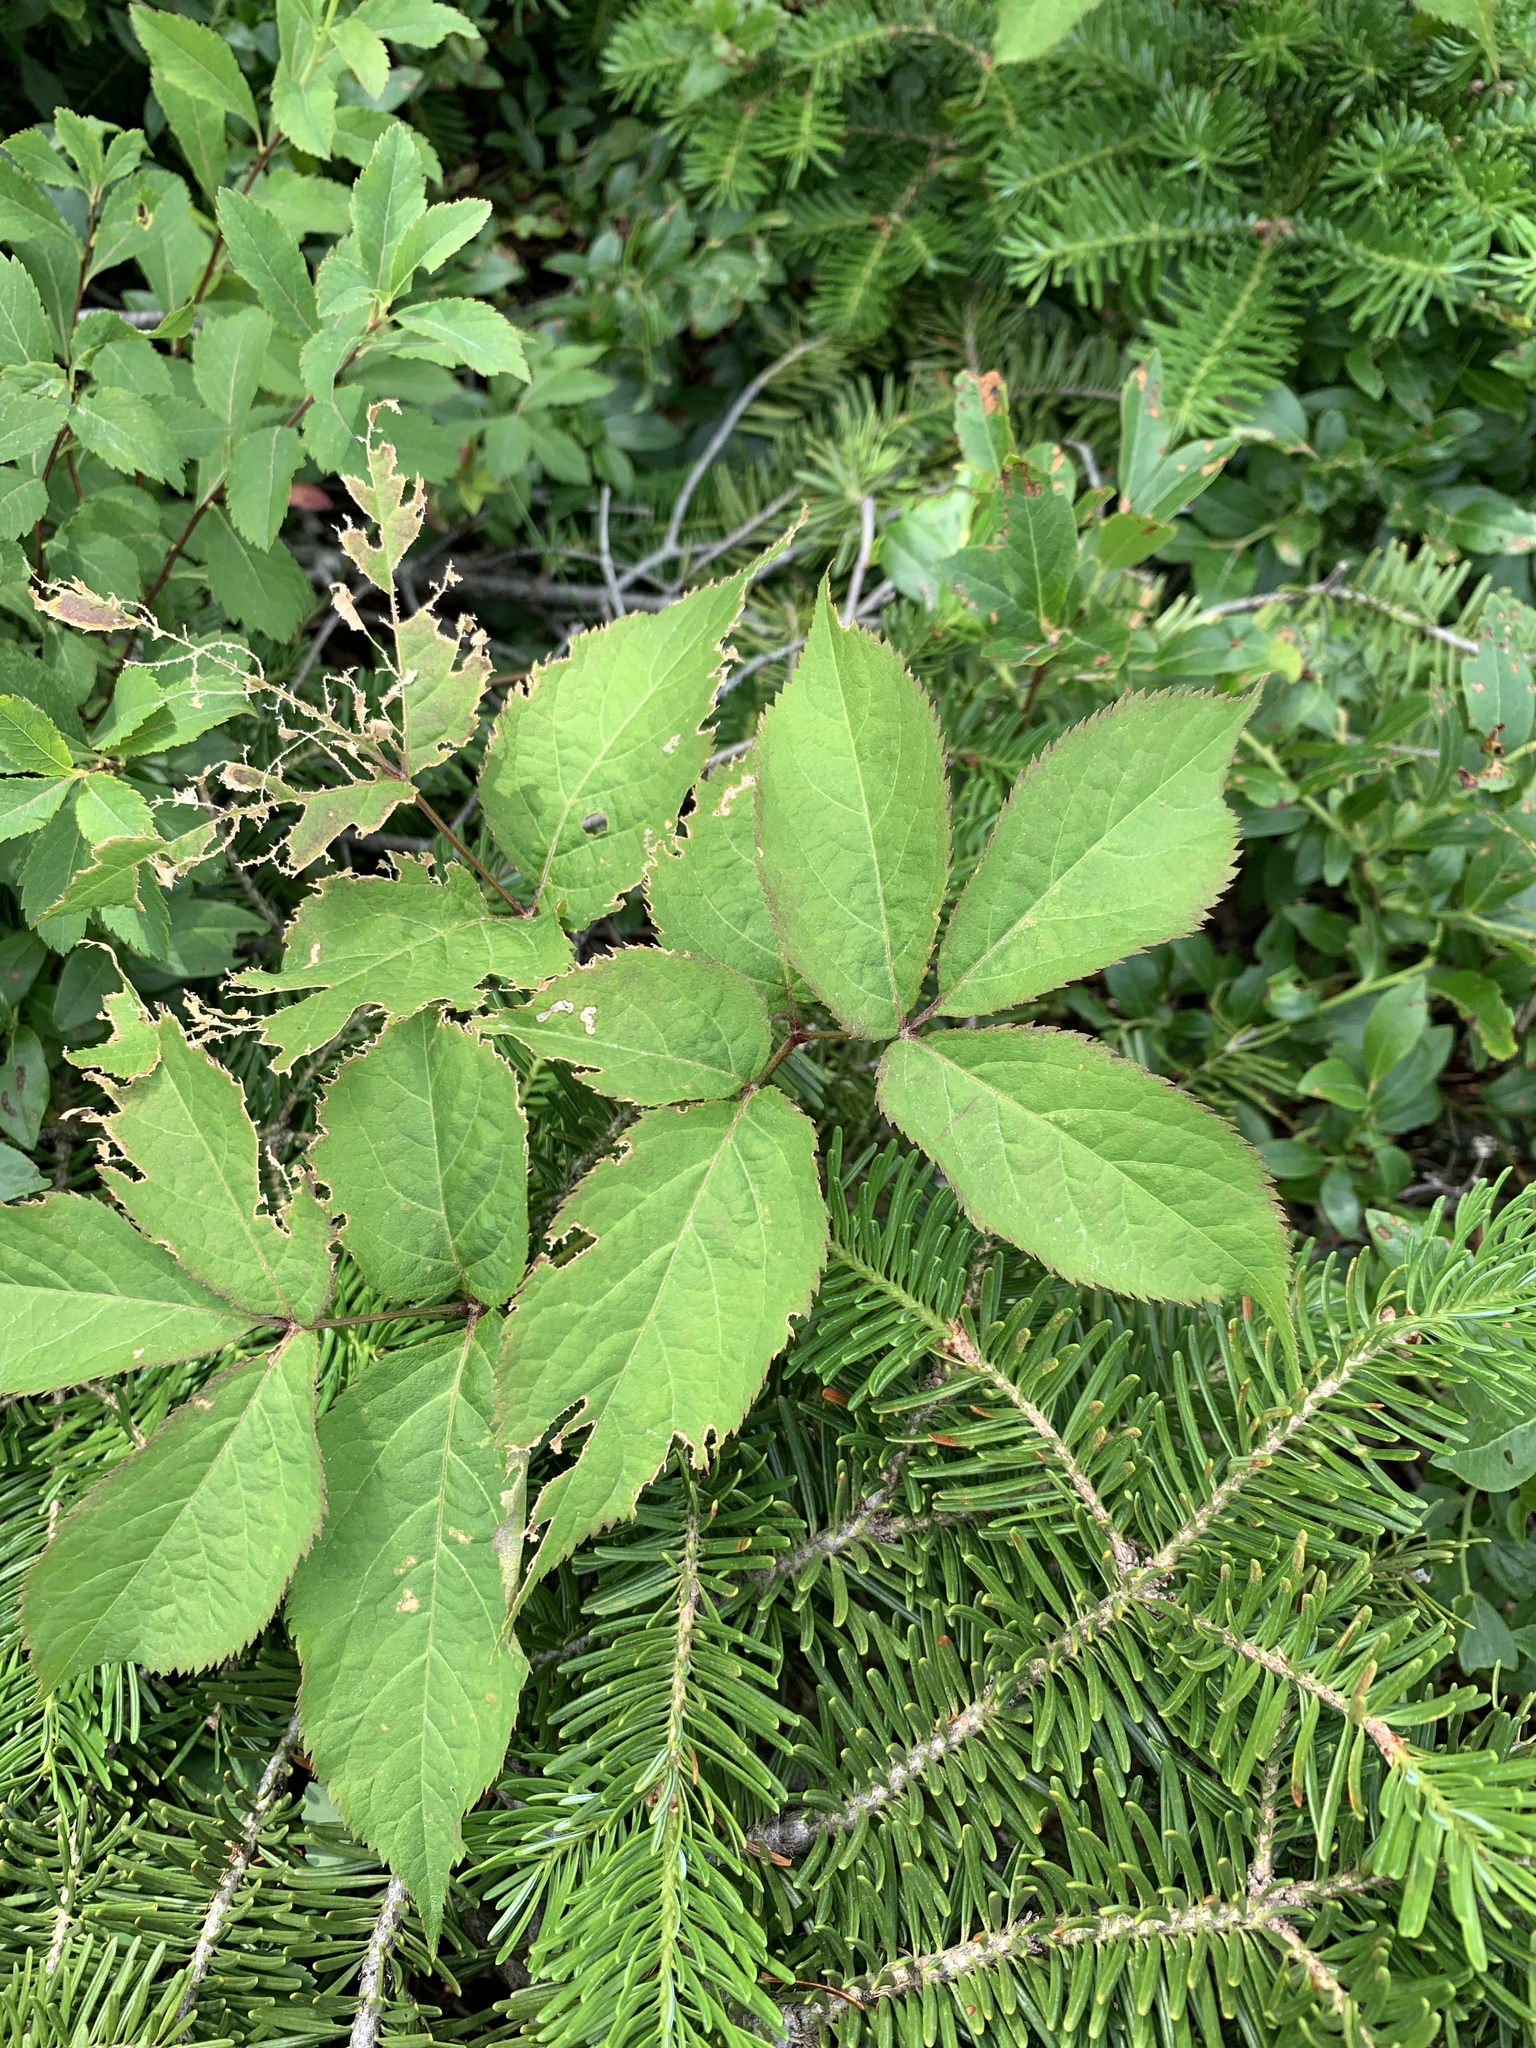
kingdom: Plantae
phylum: Tracheophyta
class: Magnoliopsida
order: Apiales
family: Araliaceae
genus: Aralia
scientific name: Aralia nudicaulis
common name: Wild sarsaparilla
